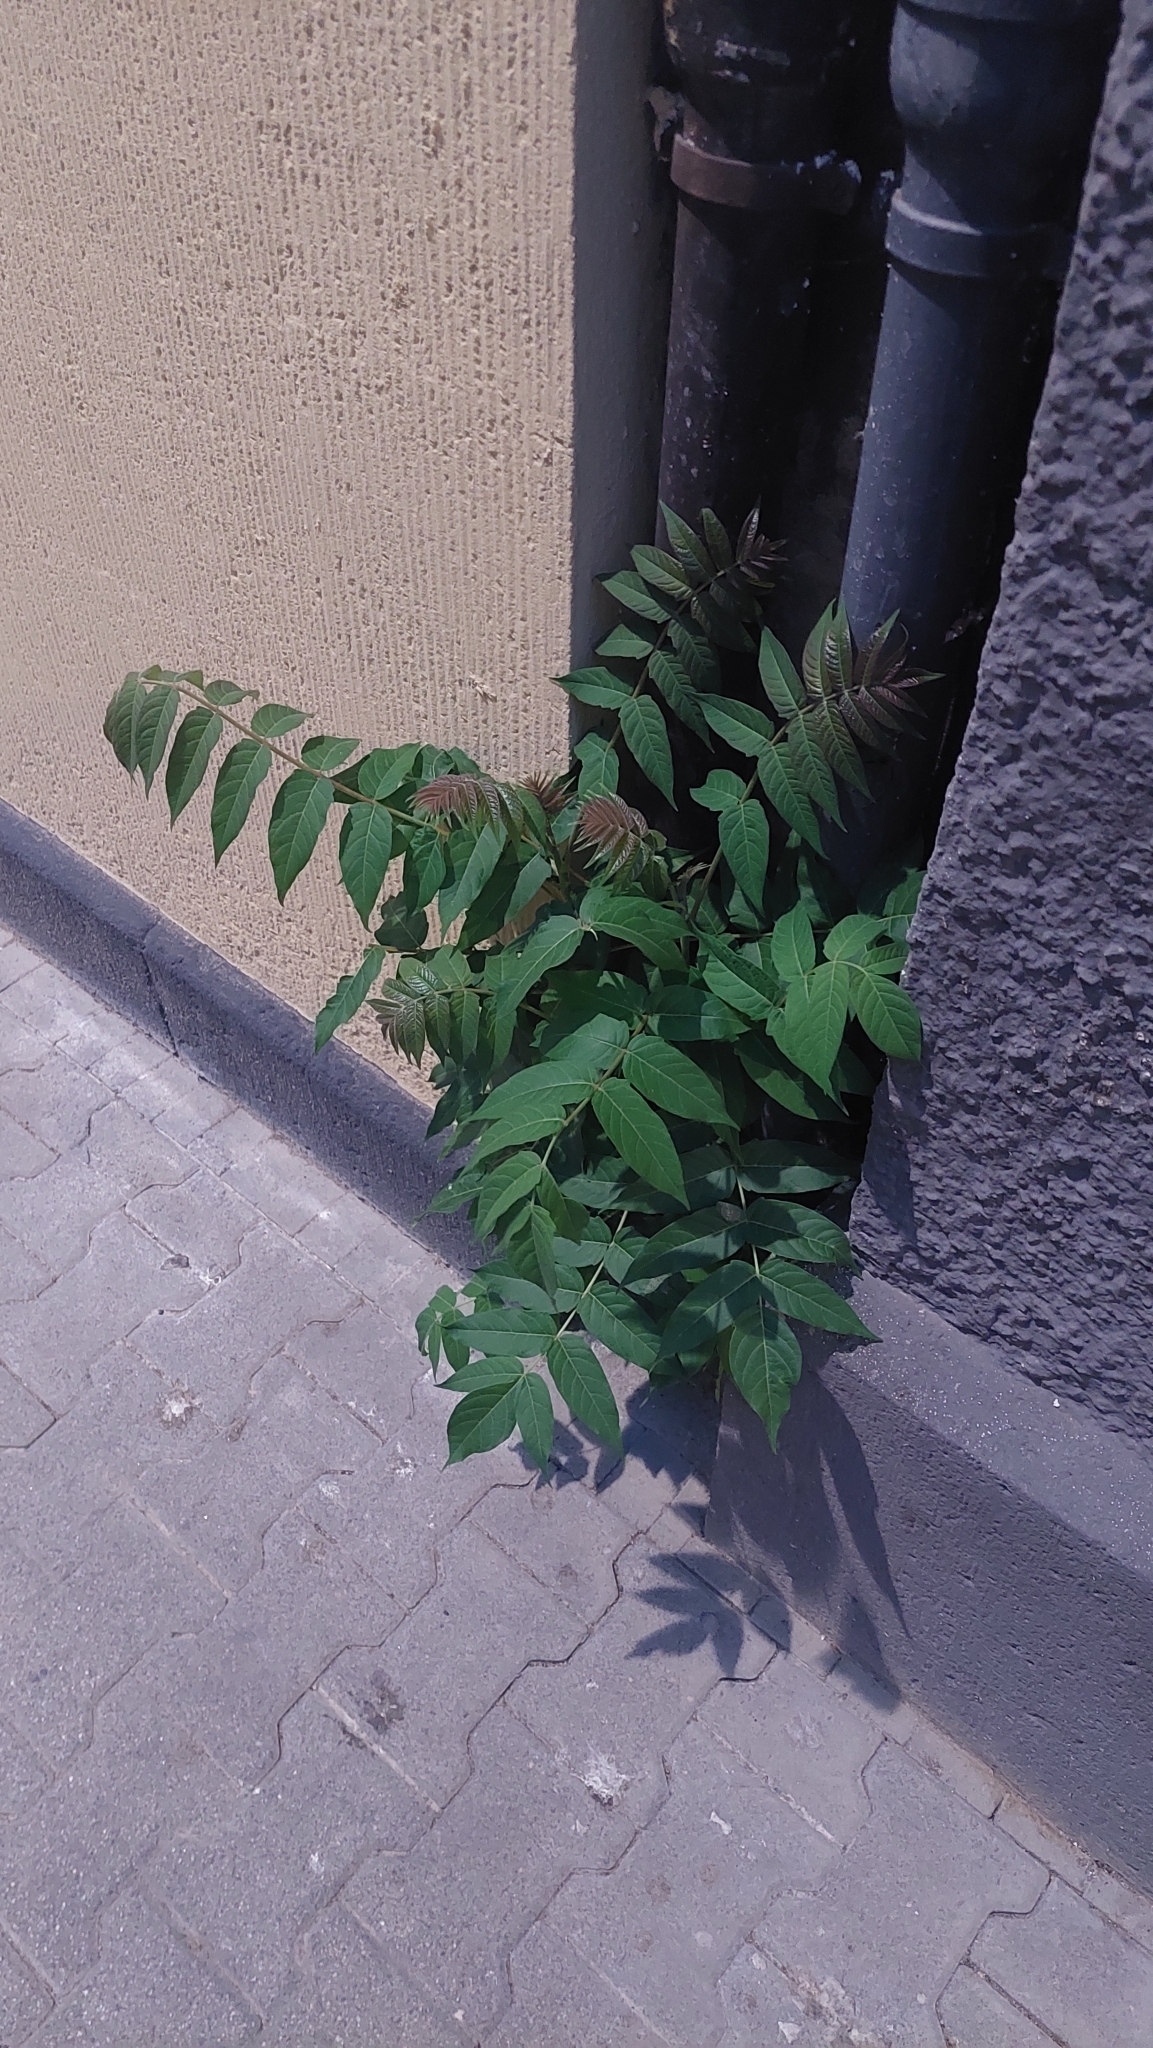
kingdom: Plantae
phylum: Tracheophyta
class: Magnoliopsida
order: Sapindales
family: Simaroubaceae
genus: Ailanthus
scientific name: Ailanthus altissima
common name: Tree-of-heaven
